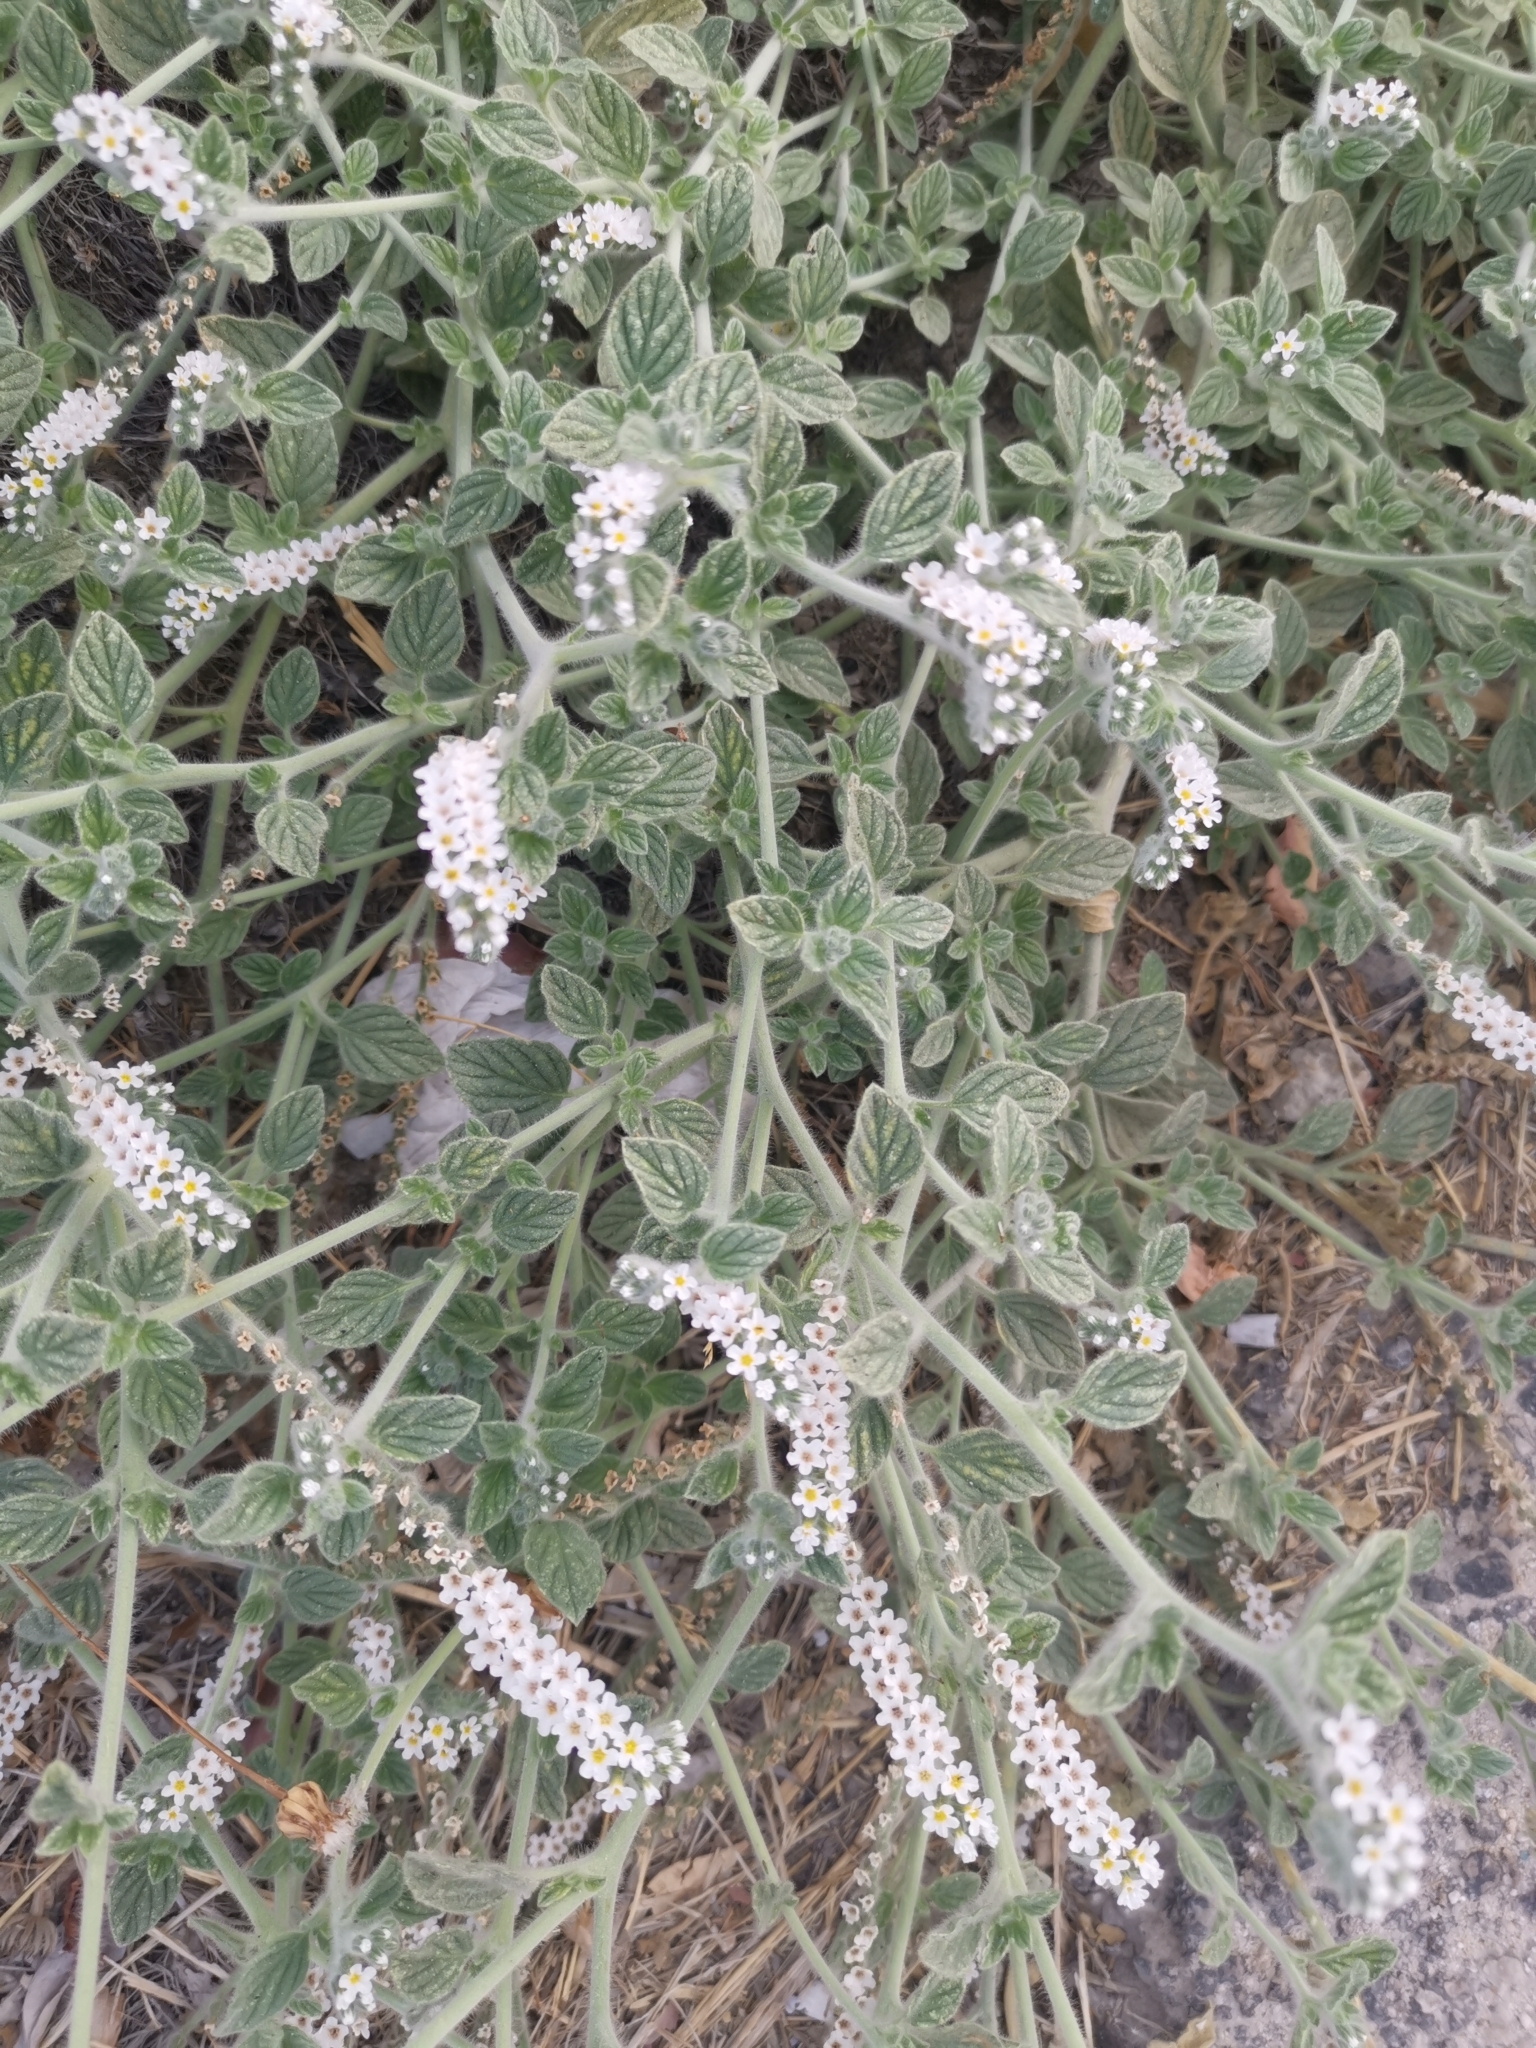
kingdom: Plantae
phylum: Tracheophyta
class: Magnoliopsida
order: Boraginales
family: Heliotropiaceae
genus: Heliotropium
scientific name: Heliotropium hirsutissimum
